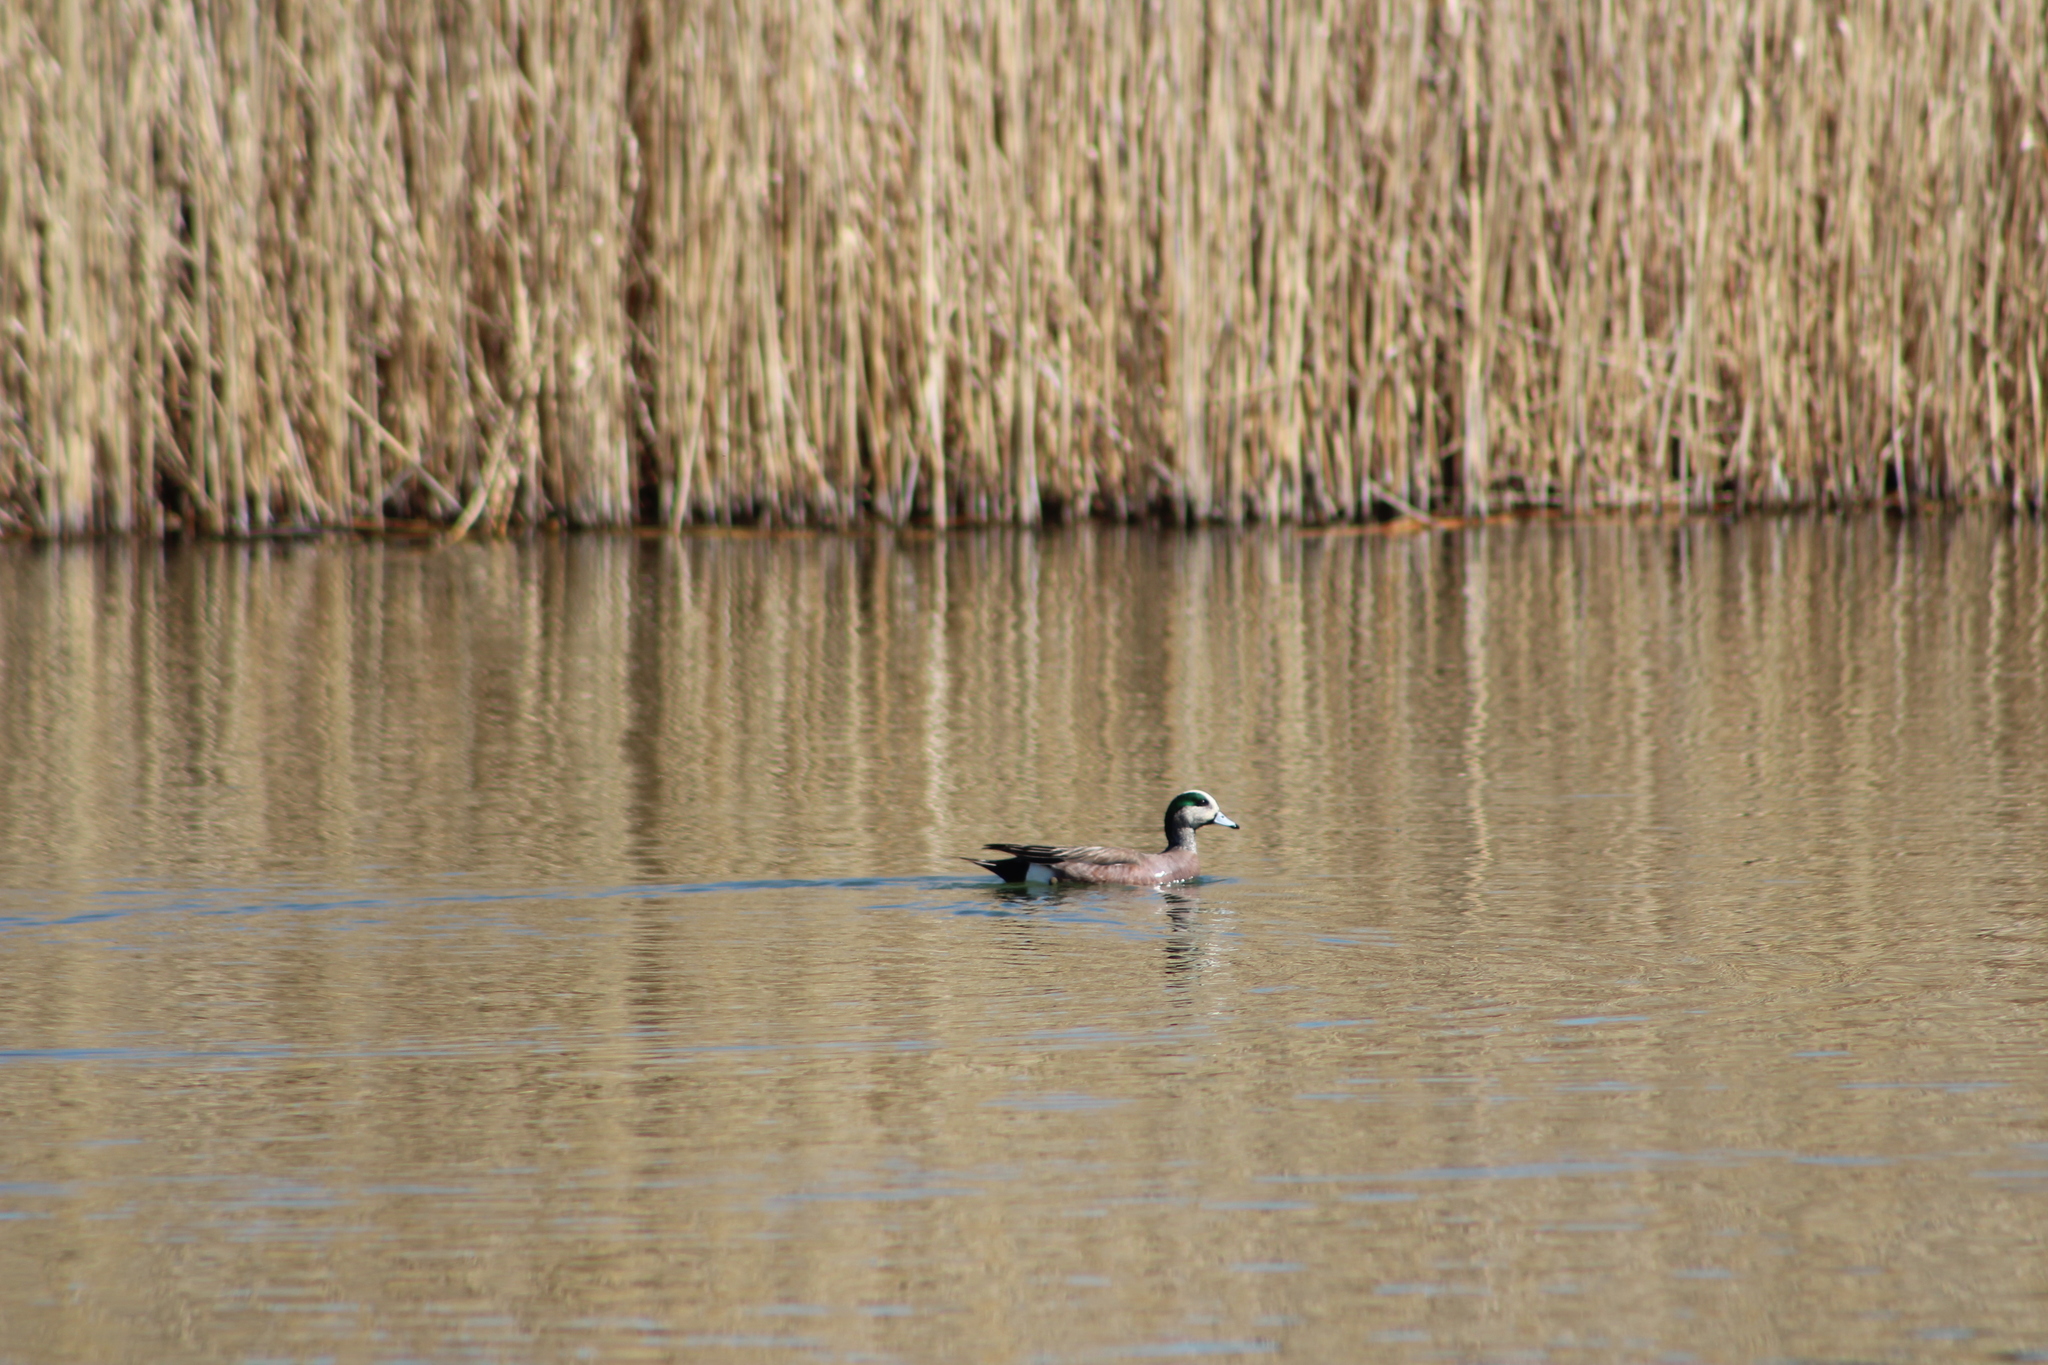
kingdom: Animalia
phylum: Chordata
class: Aves
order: Anseriformes
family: Anatidae
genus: Mareca
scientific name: Mareca americana
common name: American wigeon
